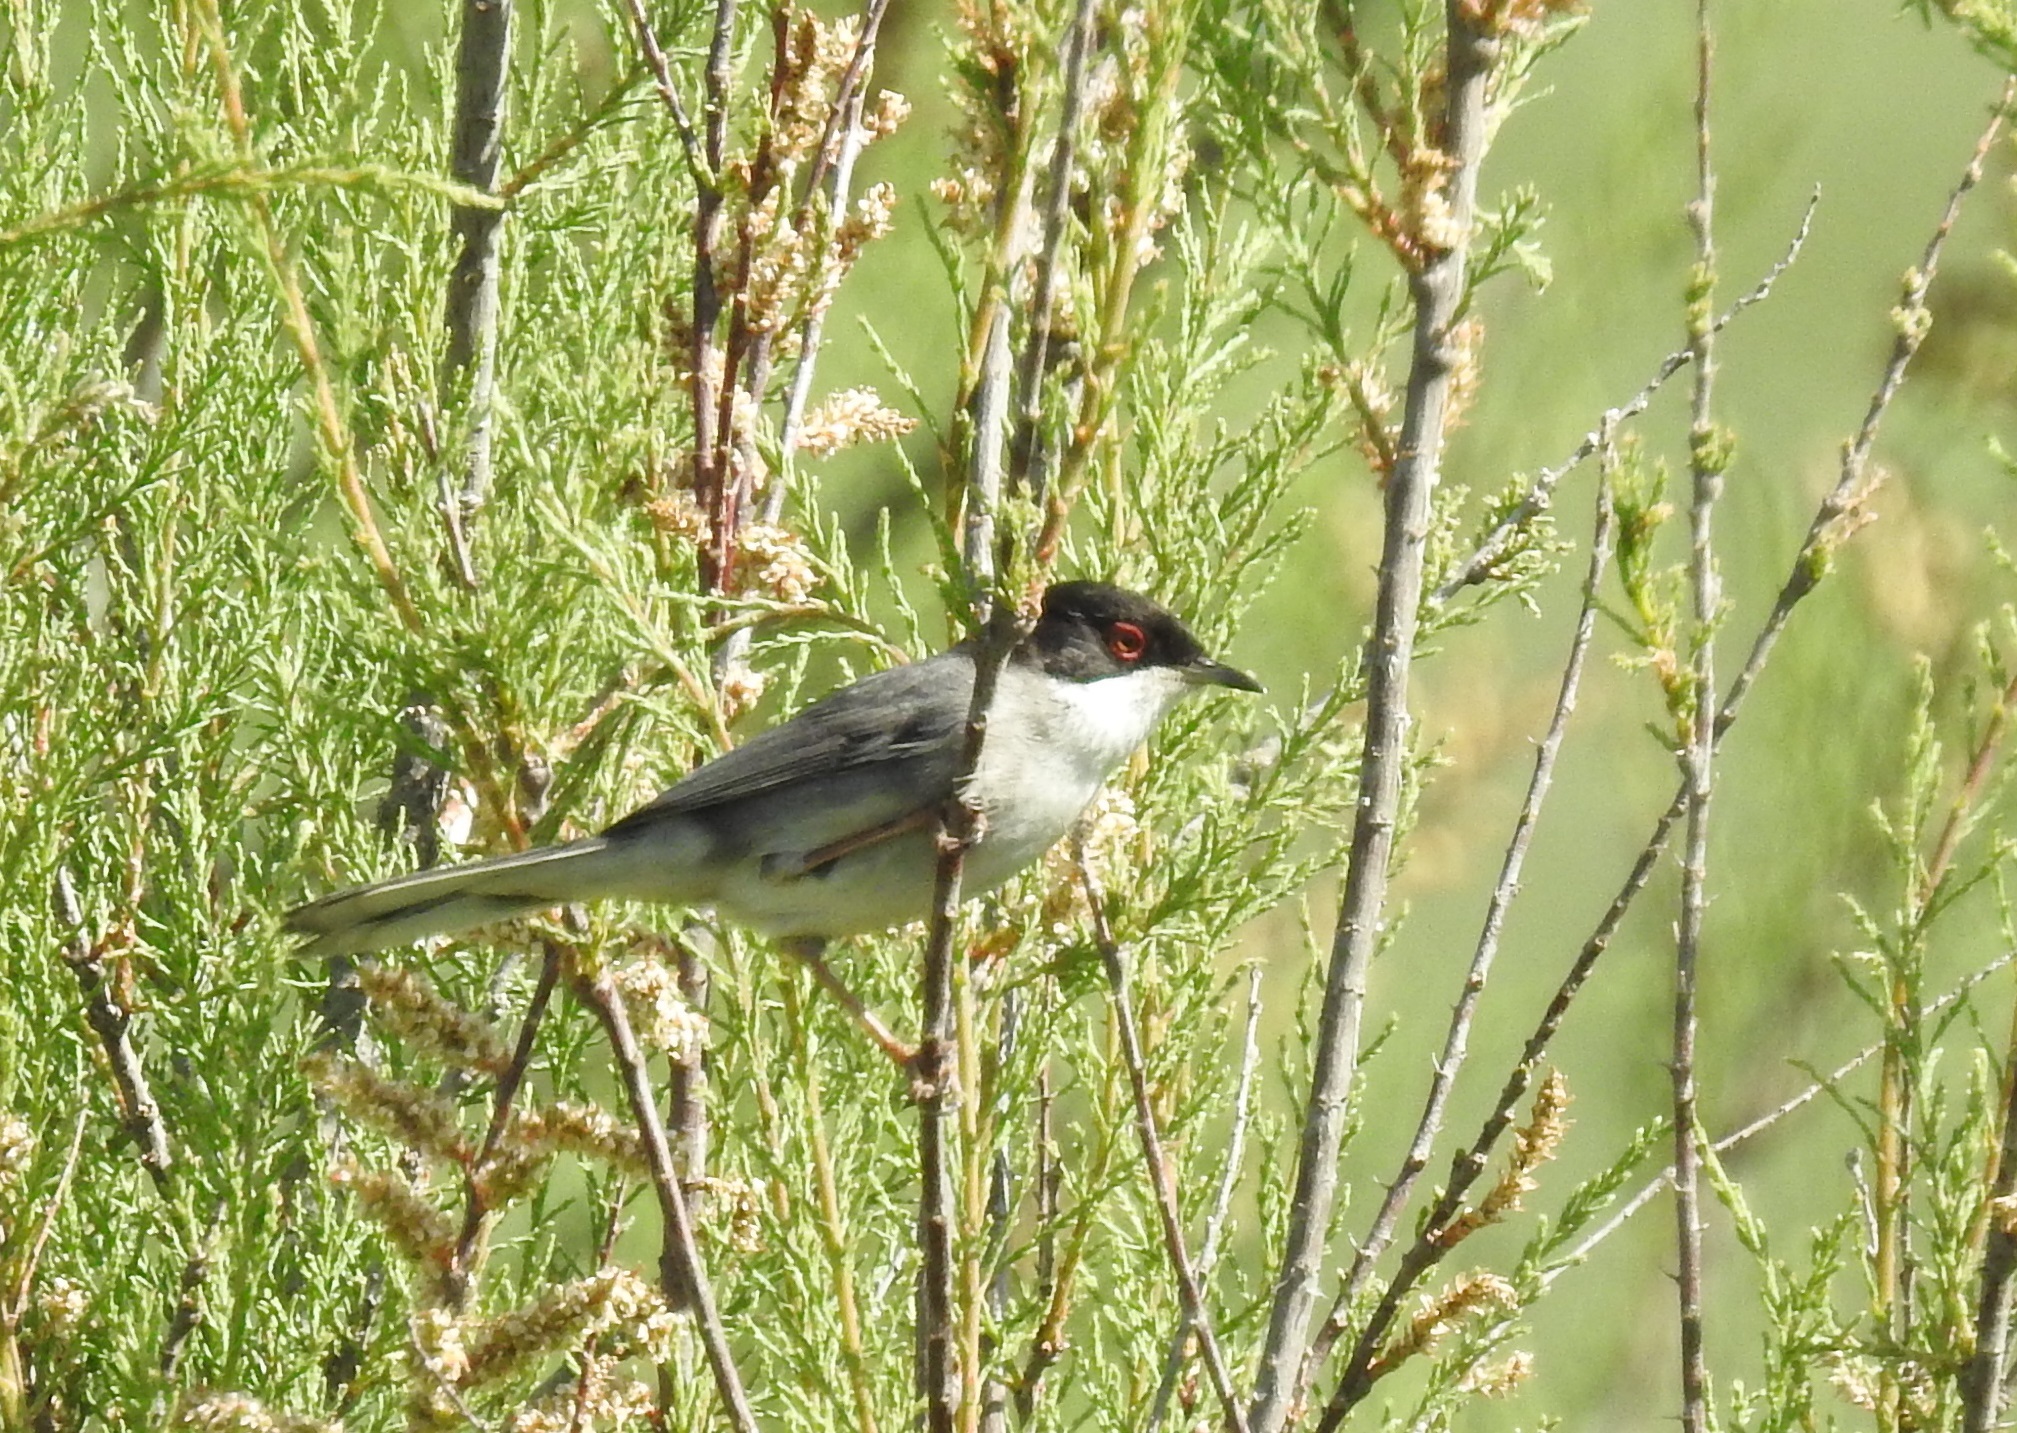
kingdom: Animalia
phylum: Chordata
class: Aves
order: Passeriformes
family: Sylviidae
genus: Curruca
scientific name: Curruca melanocephala
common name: Sardinian warbler
